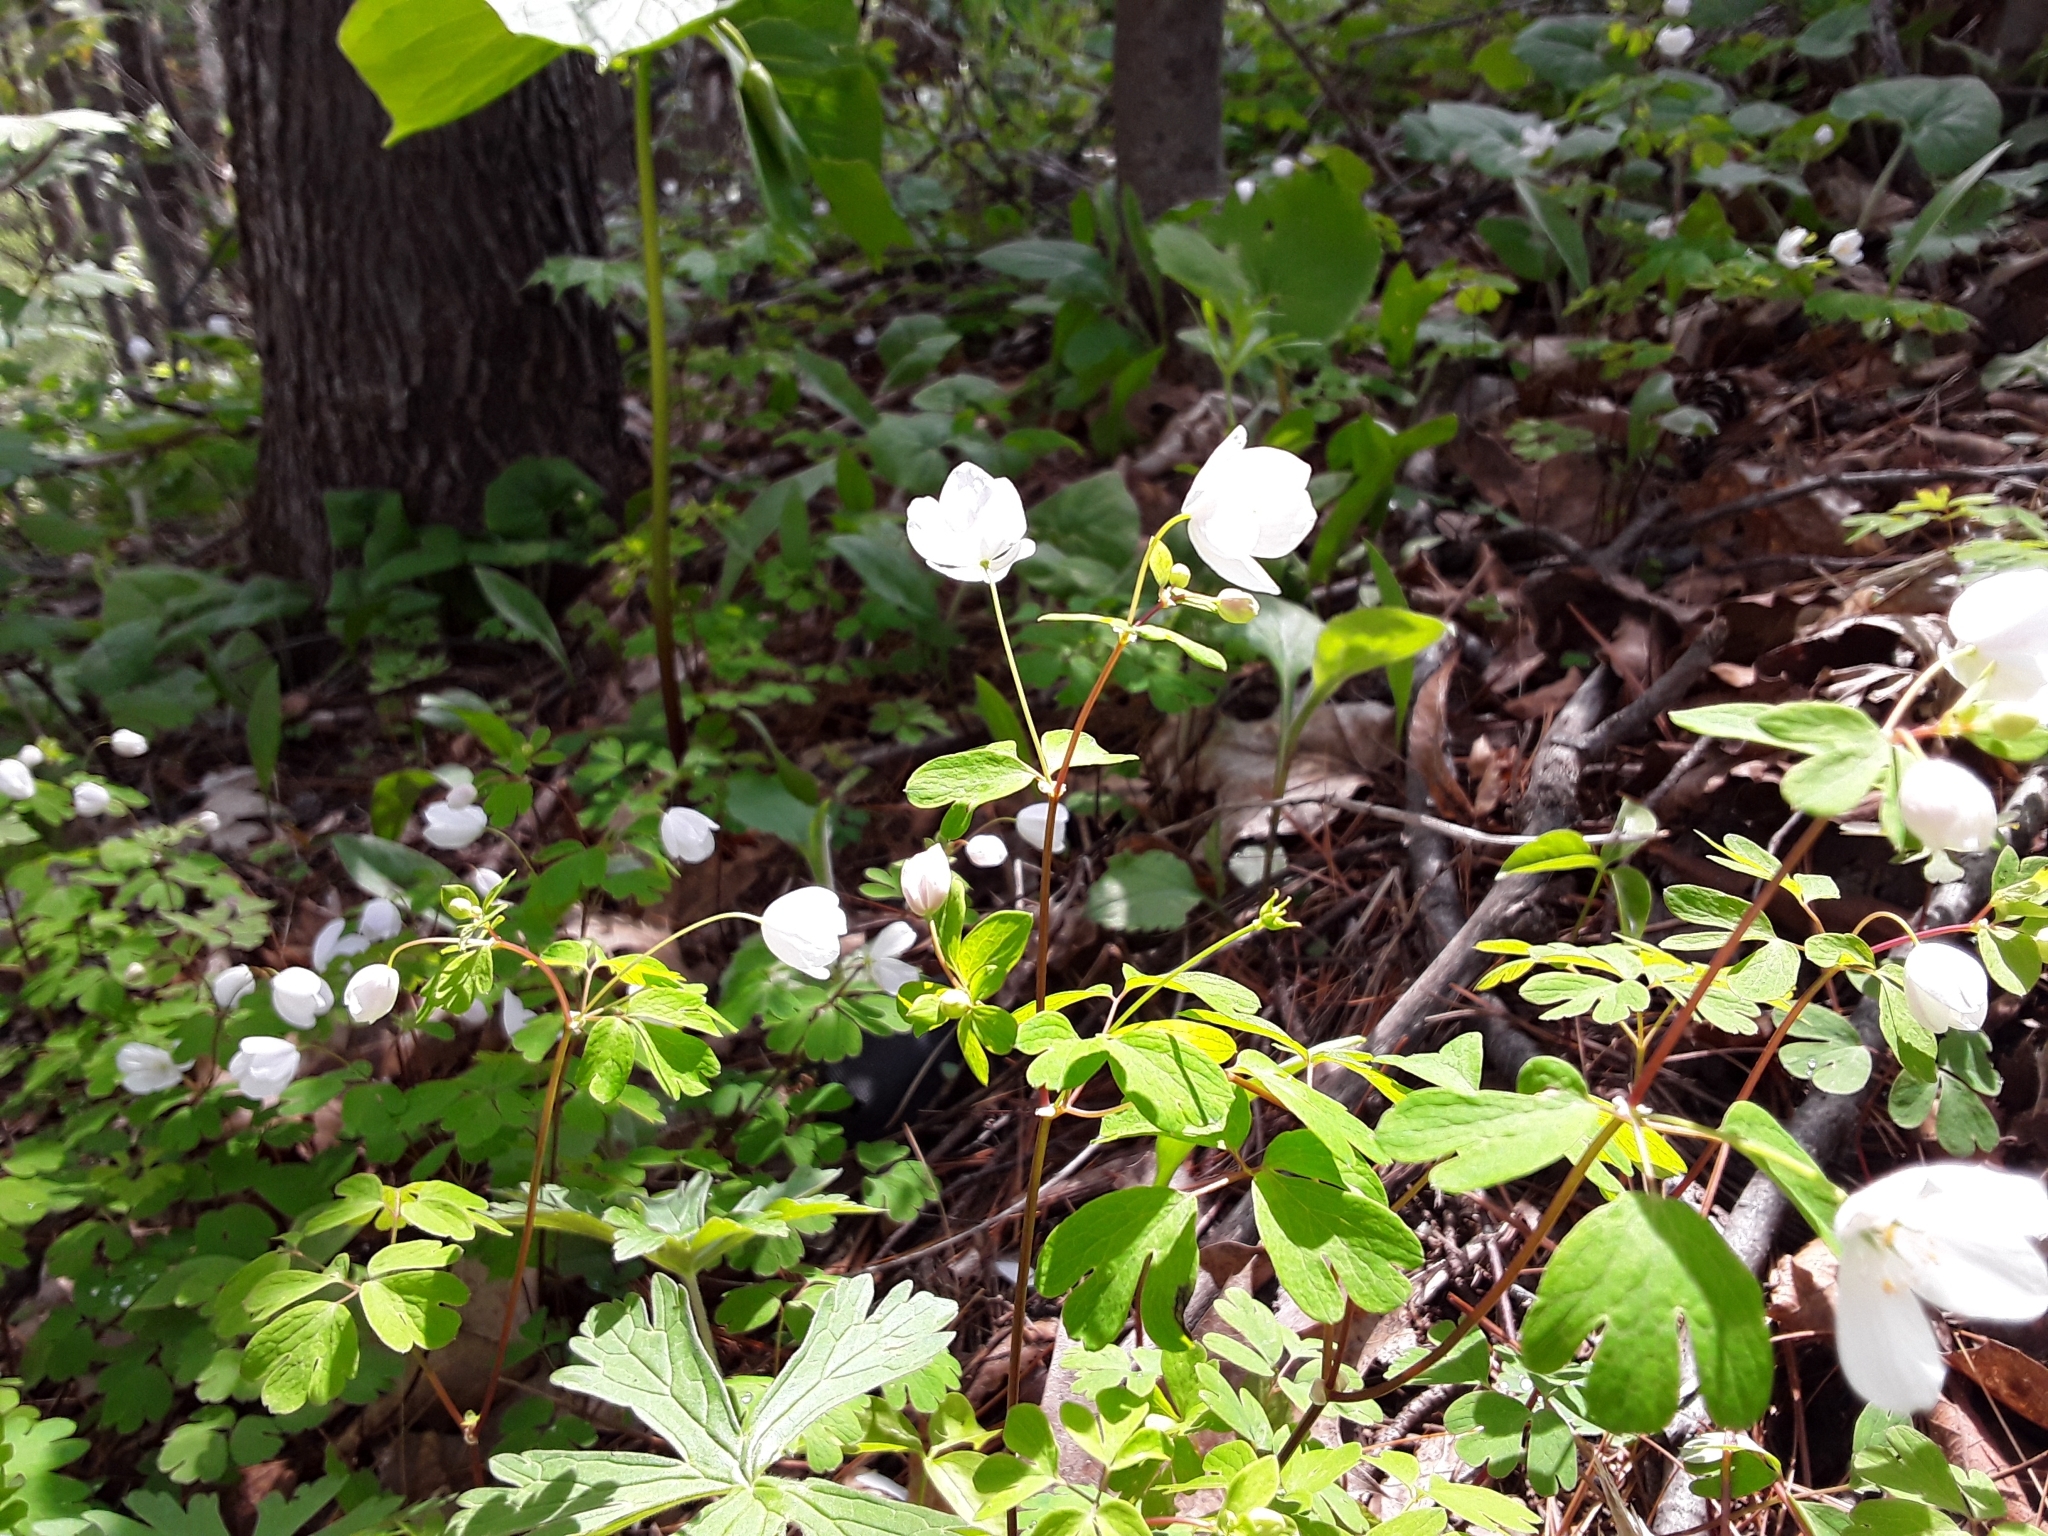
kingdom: Plantae
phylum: Tracheophyta
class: Magnoliopsida
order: Ranunculales
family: Ranunculaceae
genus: Enemion
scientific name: Enemion biternatum
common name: Eastern false rue-anemone
